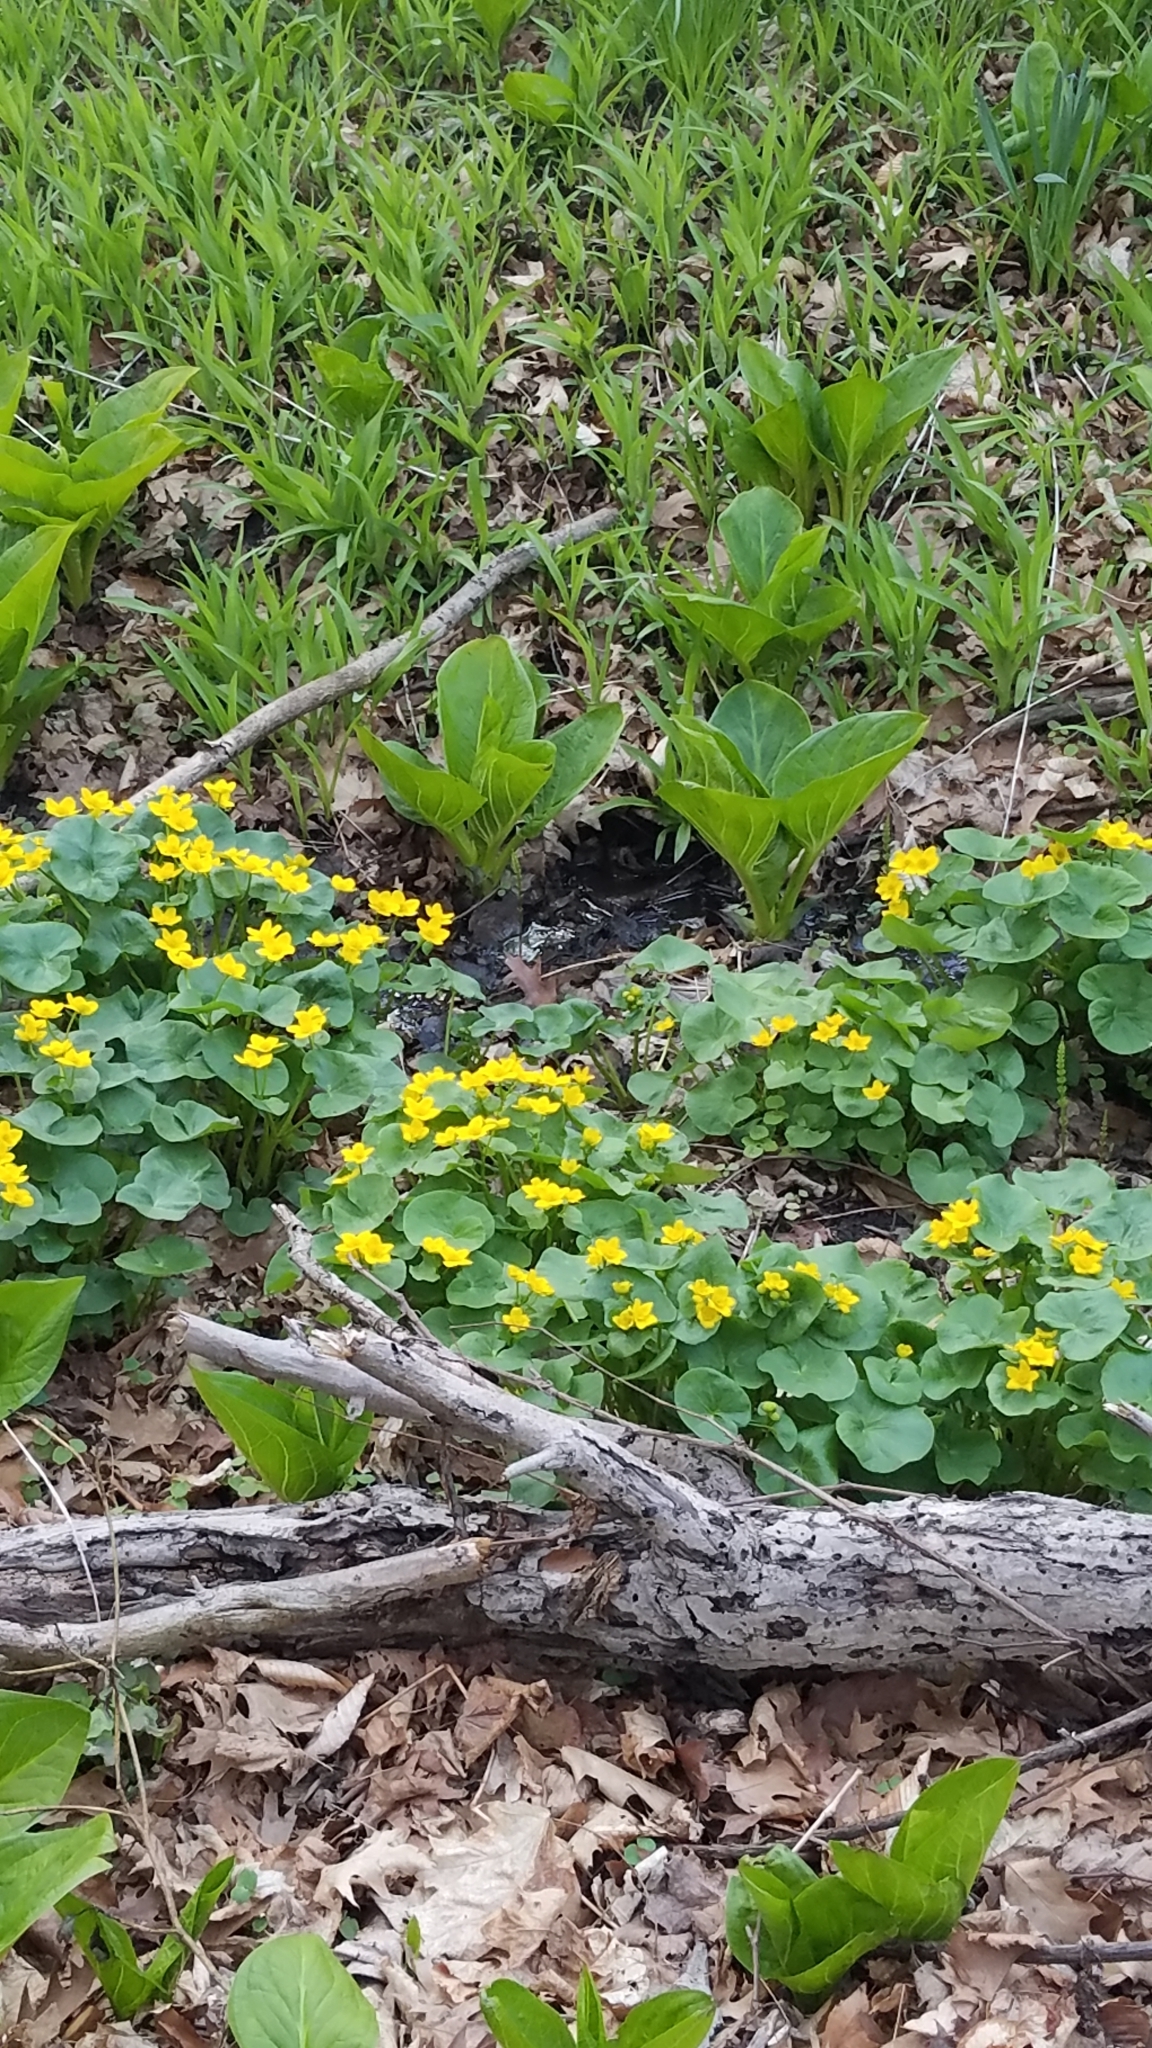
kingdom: Plantae
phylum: Tracheophyta
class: Magnoliopsida
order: Ranunculales
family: Ranunculaceae
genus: Caltha
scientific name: Caltha palustris
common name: Marsh marigold
